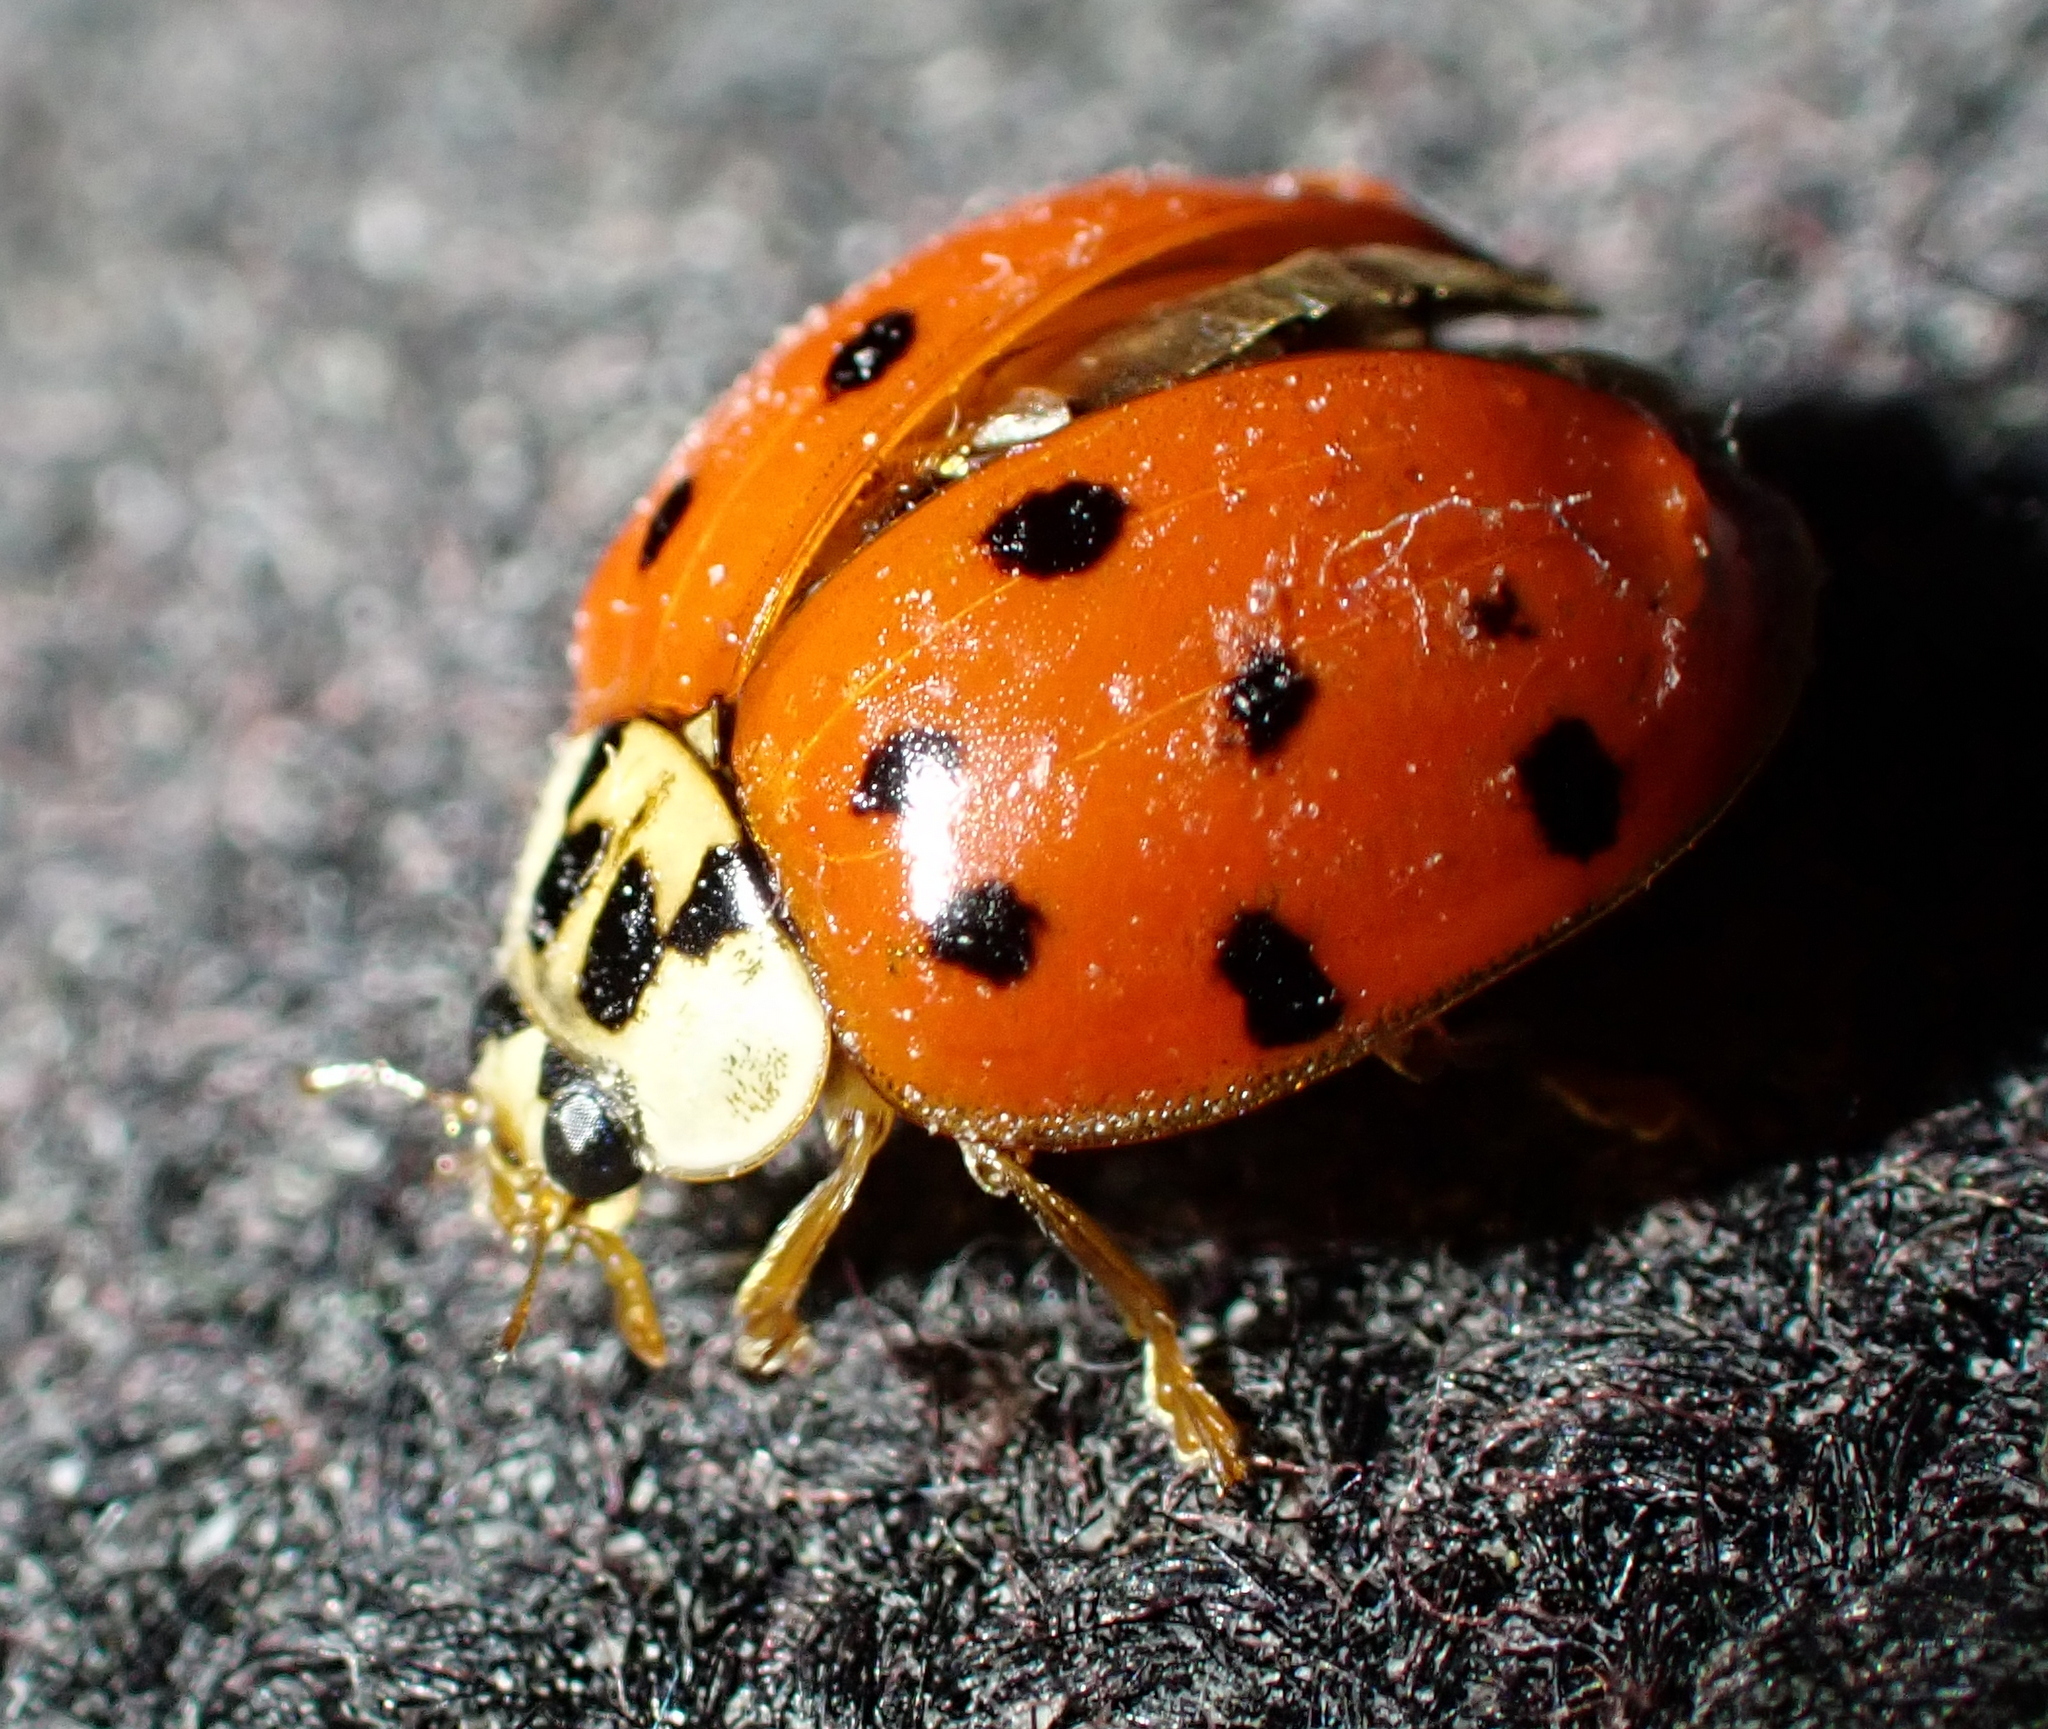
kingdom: Animalia
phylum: Arthropoda
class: Insecta
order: Coleoptera
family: Coccinellidae
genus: Harmonia
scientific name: Harmonia axyridis
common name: Harlequin ladybird
